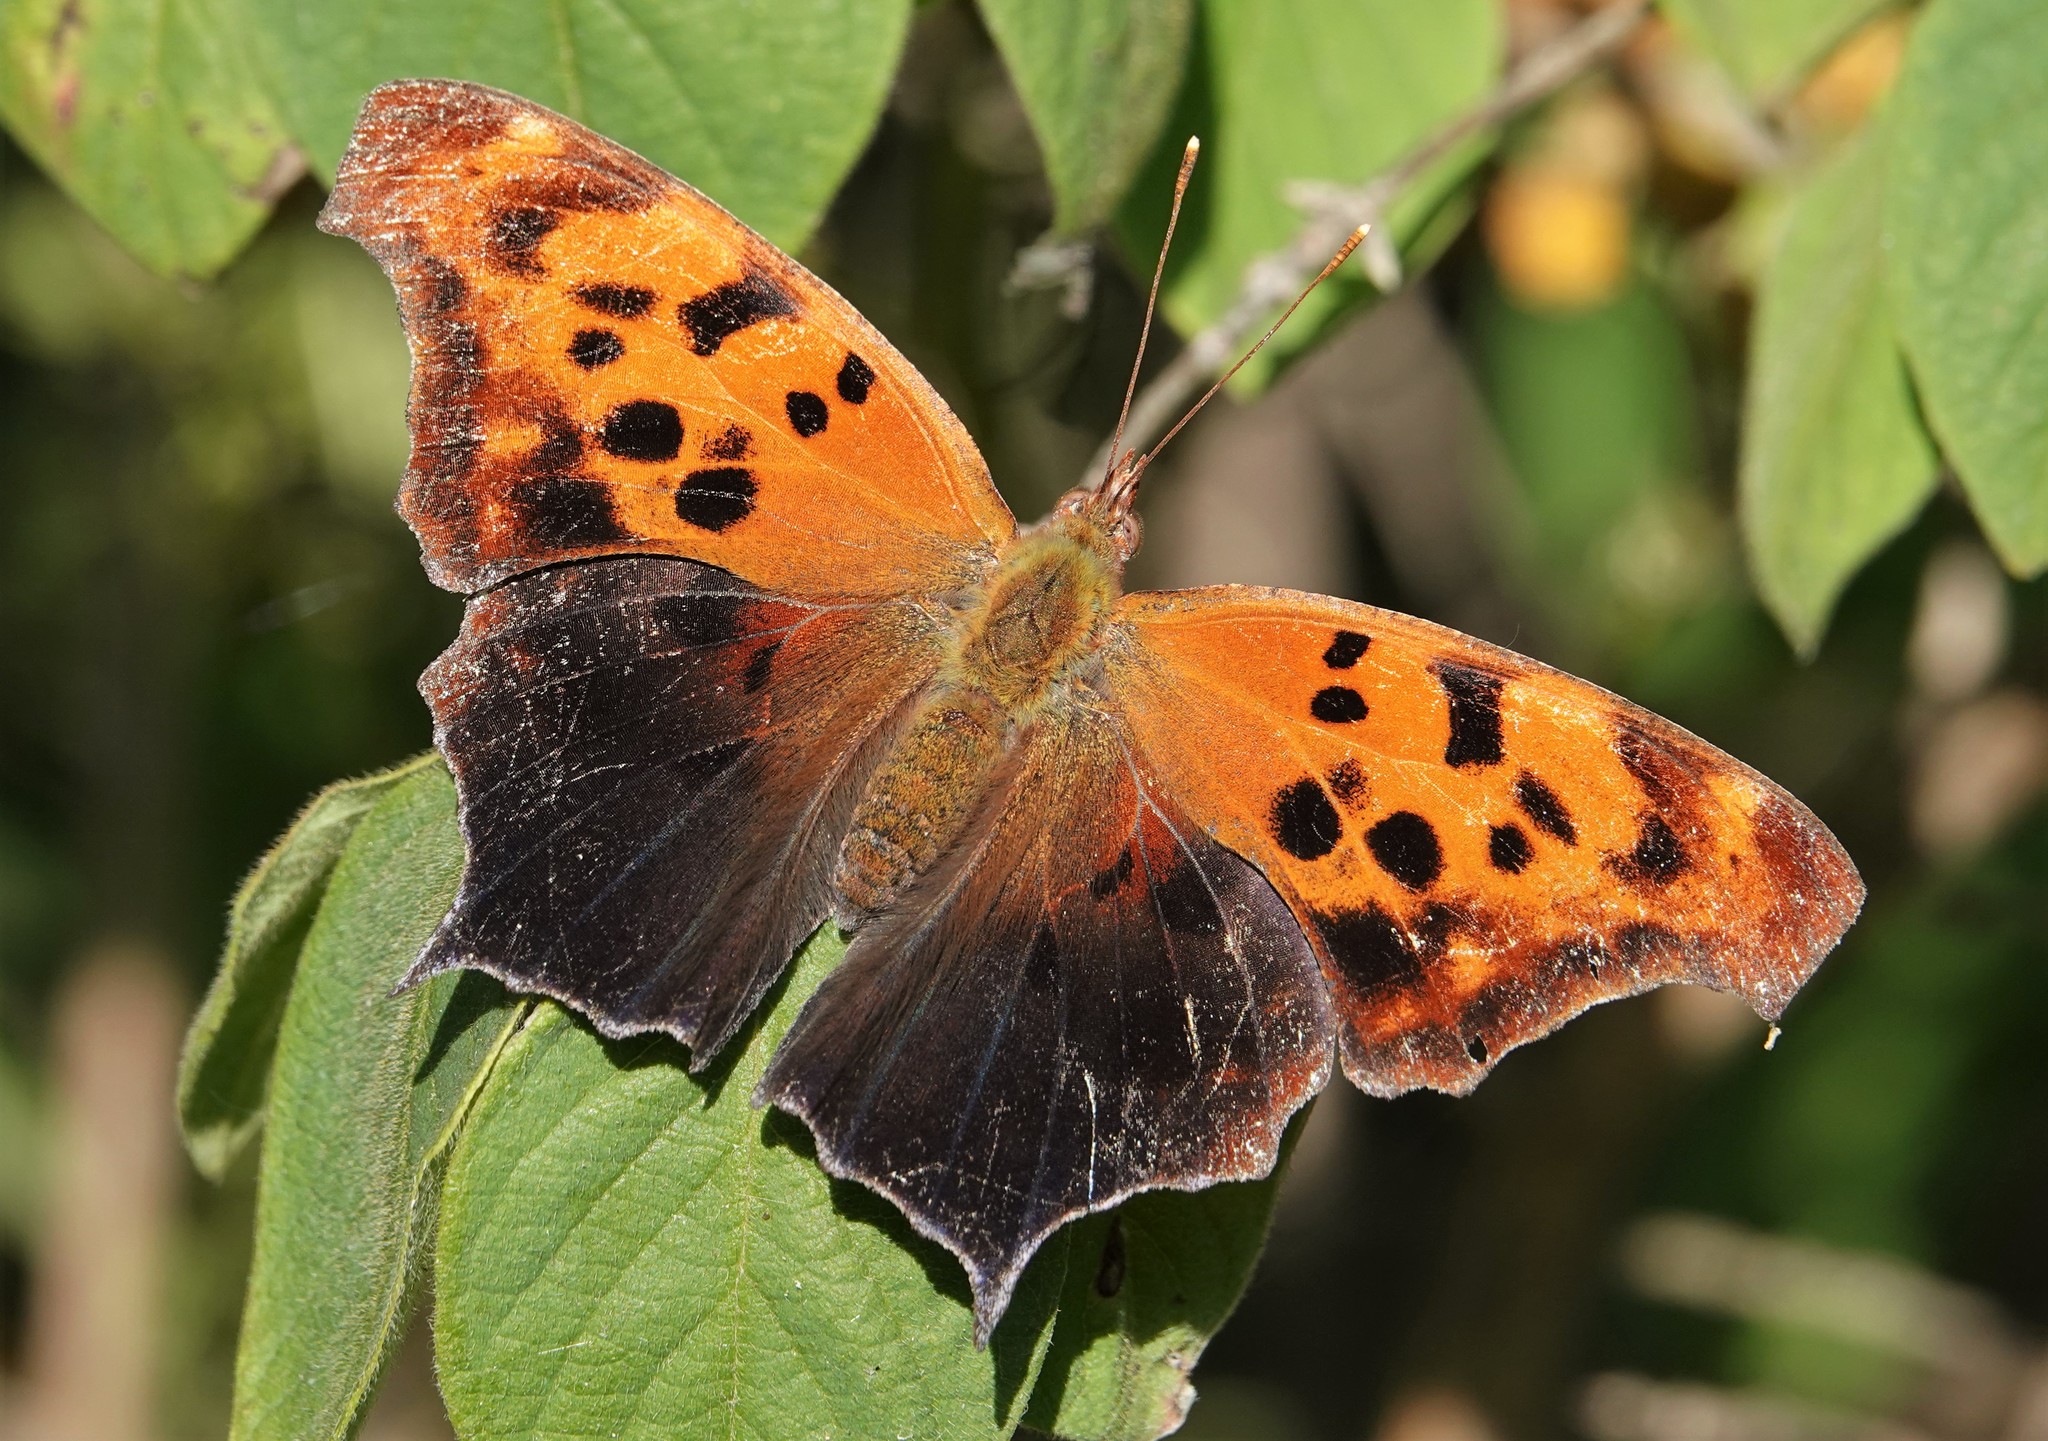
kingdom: Animalia
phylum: Arthropoda
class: Insecta
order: Lepidoptera
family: Nymphalidae
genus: Polygonia
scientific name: Polygonia interrogationis
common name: Question mark
